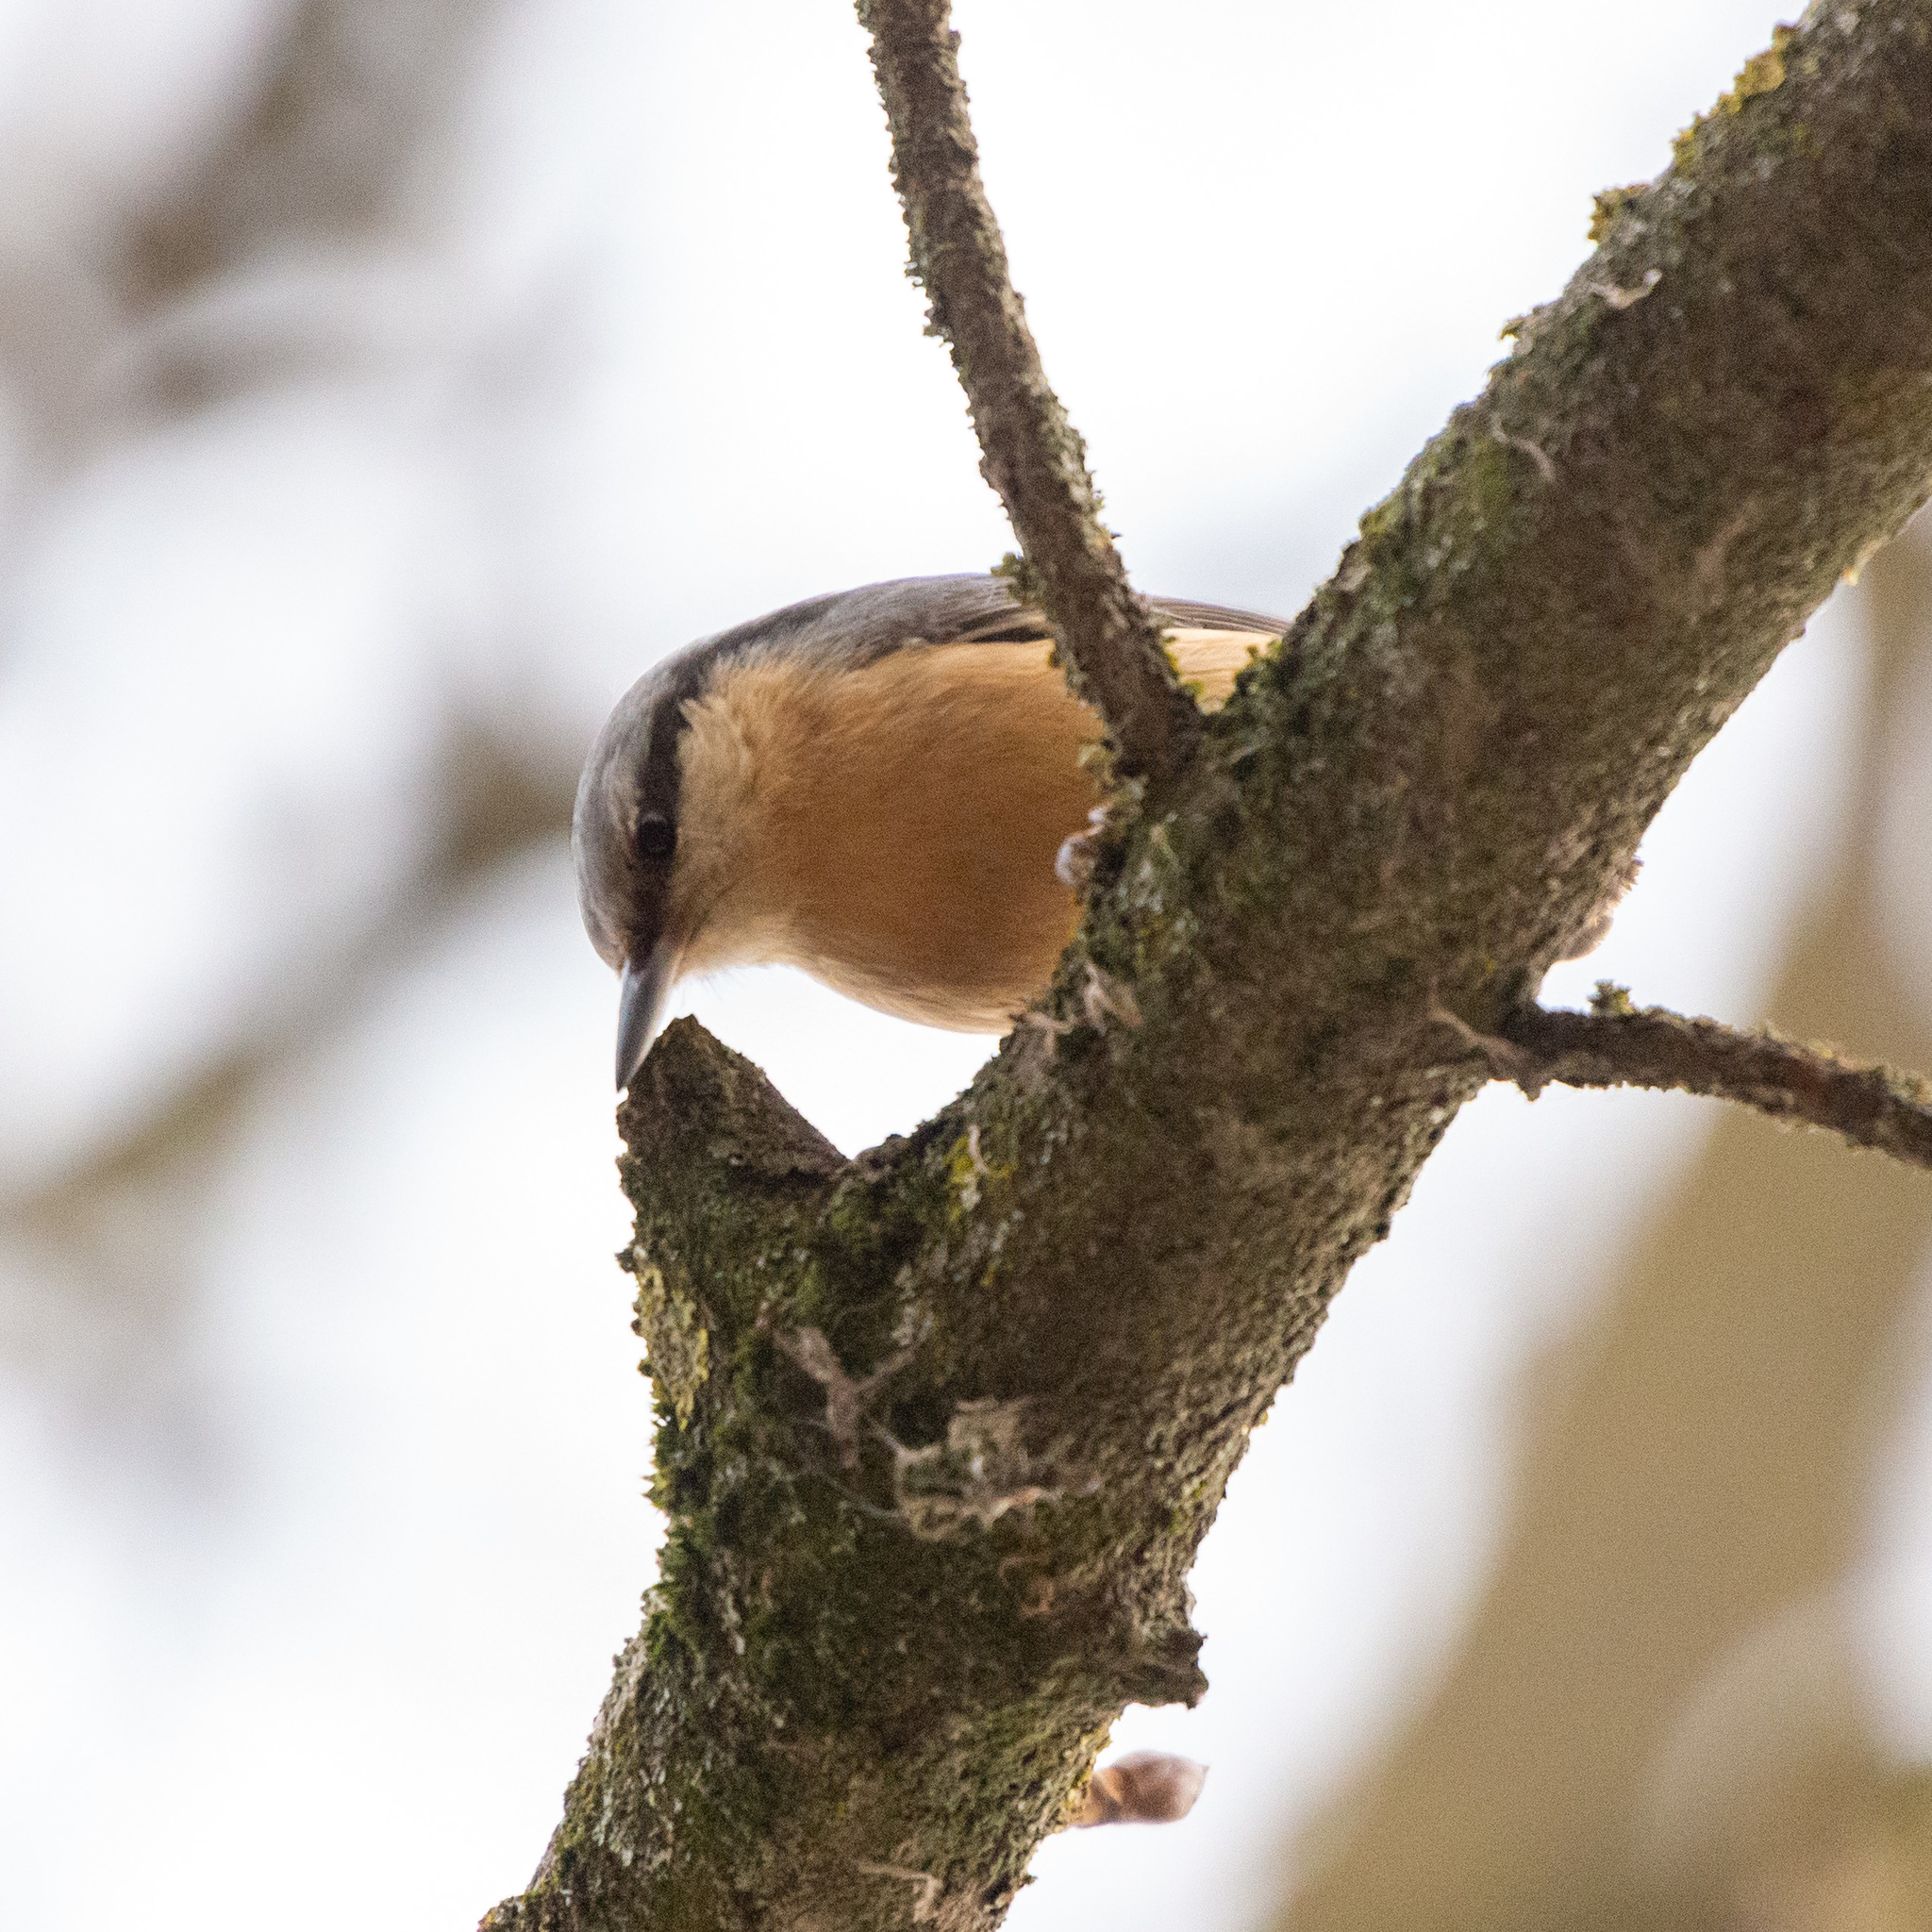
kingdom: Animalia
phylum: Chordata
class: Aves
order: Passeriformes
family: Sittidae
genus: Sitta
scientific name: Sitta europaea
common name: Eurasian nuthatch
